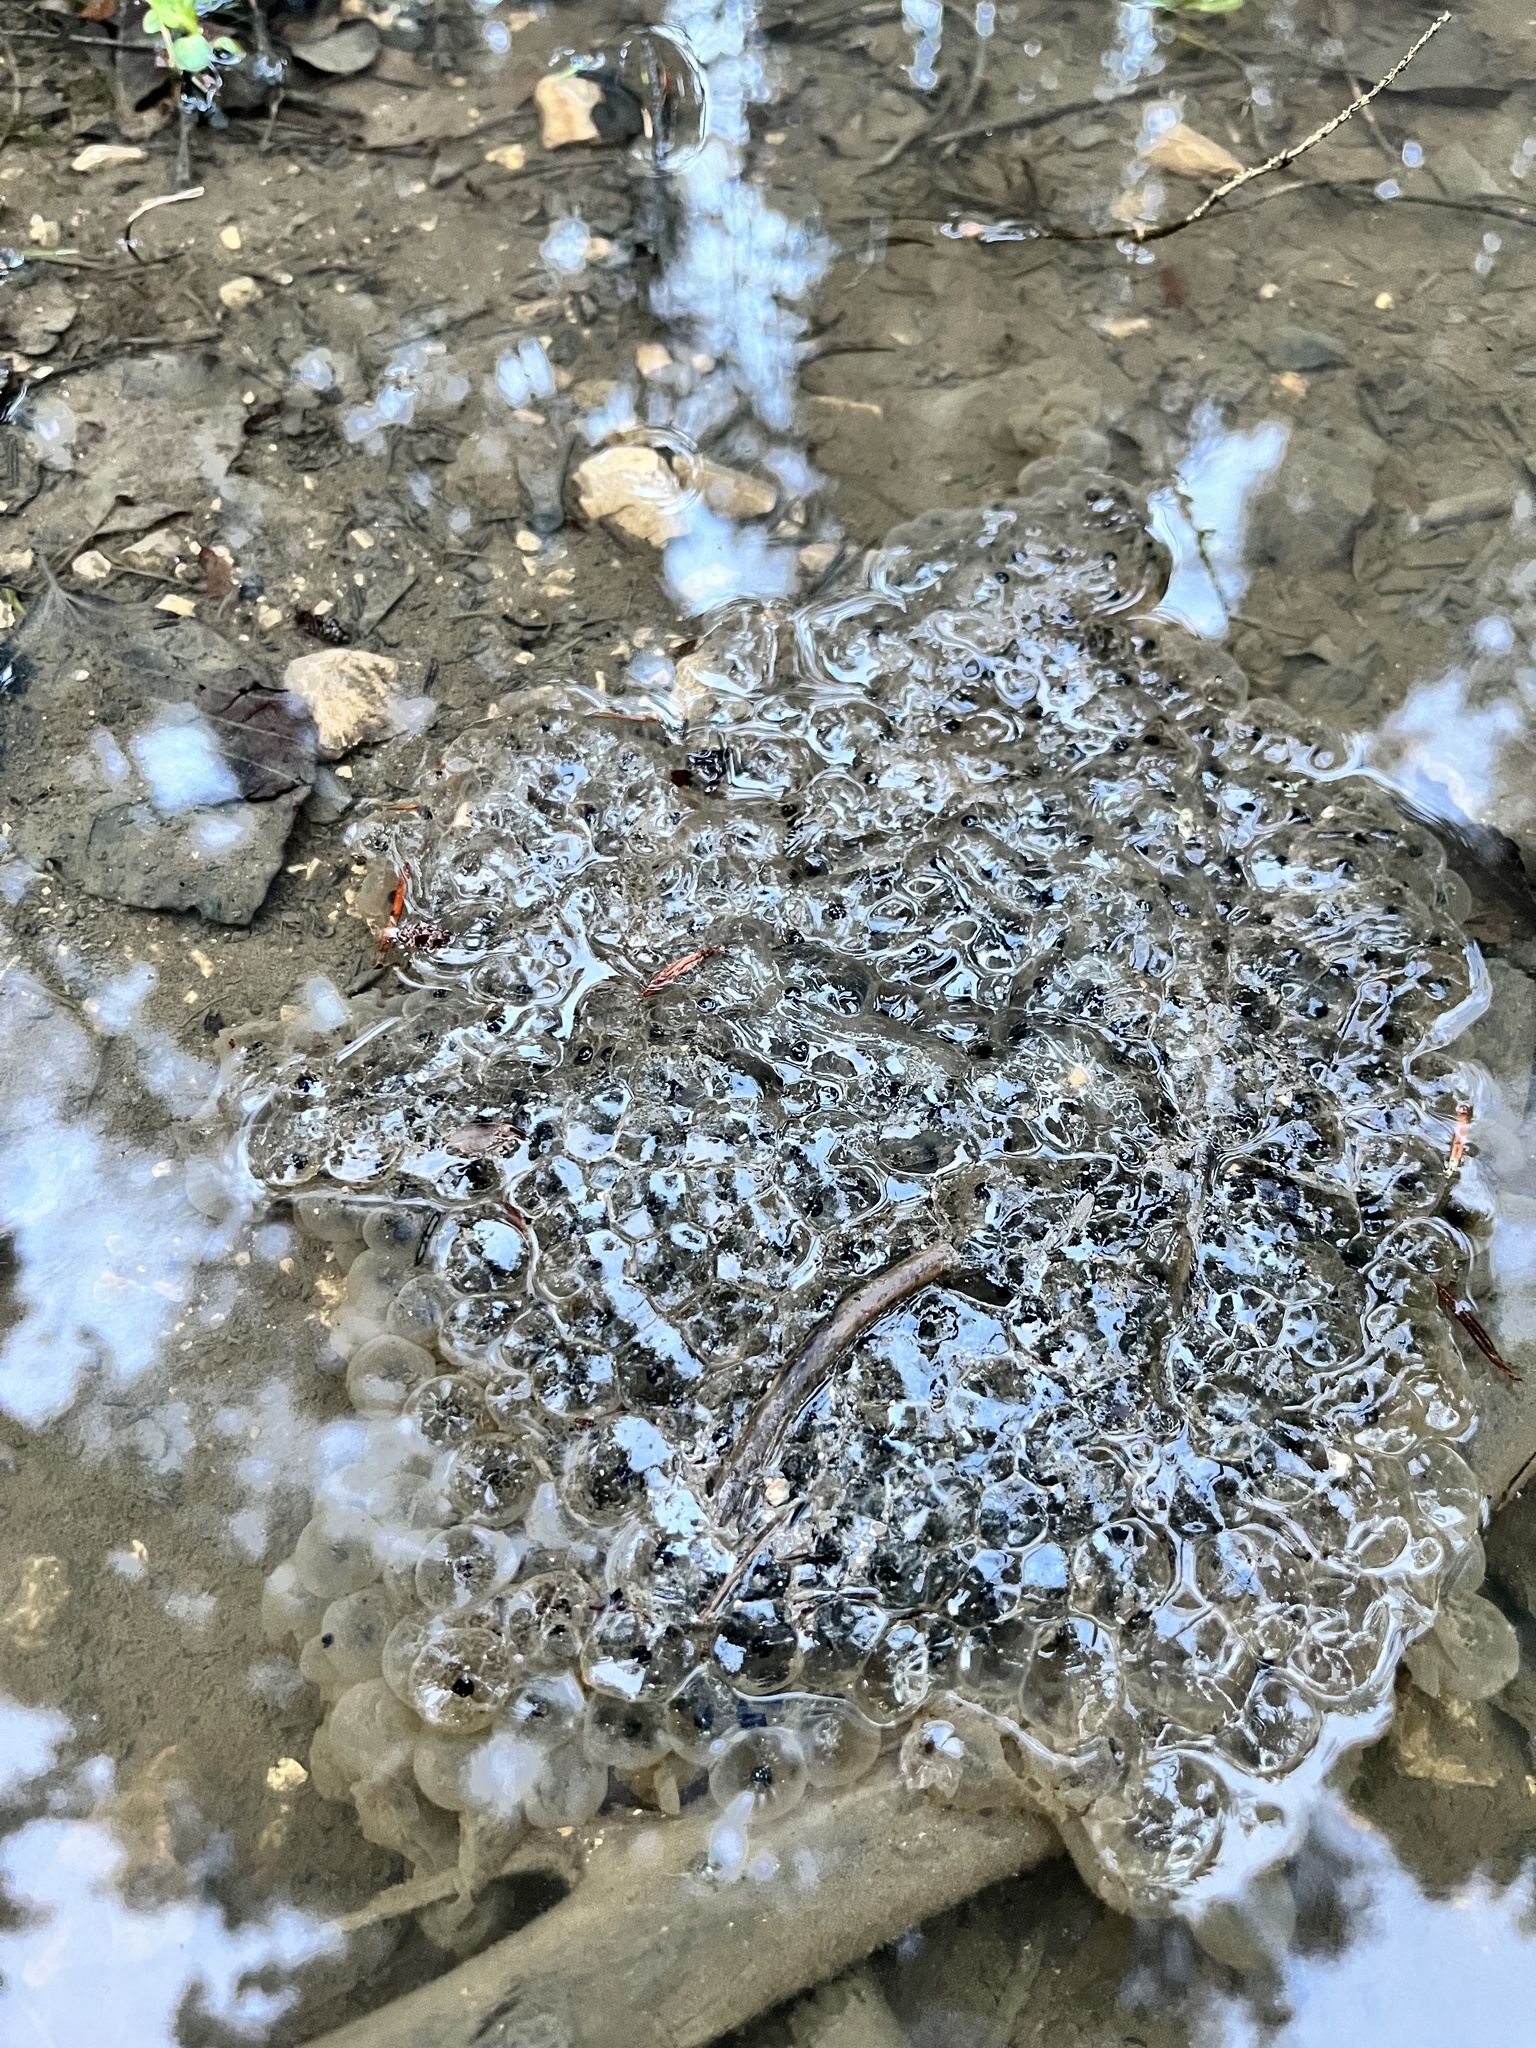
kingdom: Animalia
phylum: Chordata
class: Amphibia
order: Anura
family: Ranidae
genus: Rana
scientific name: Rana temporaria
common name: Common frog
